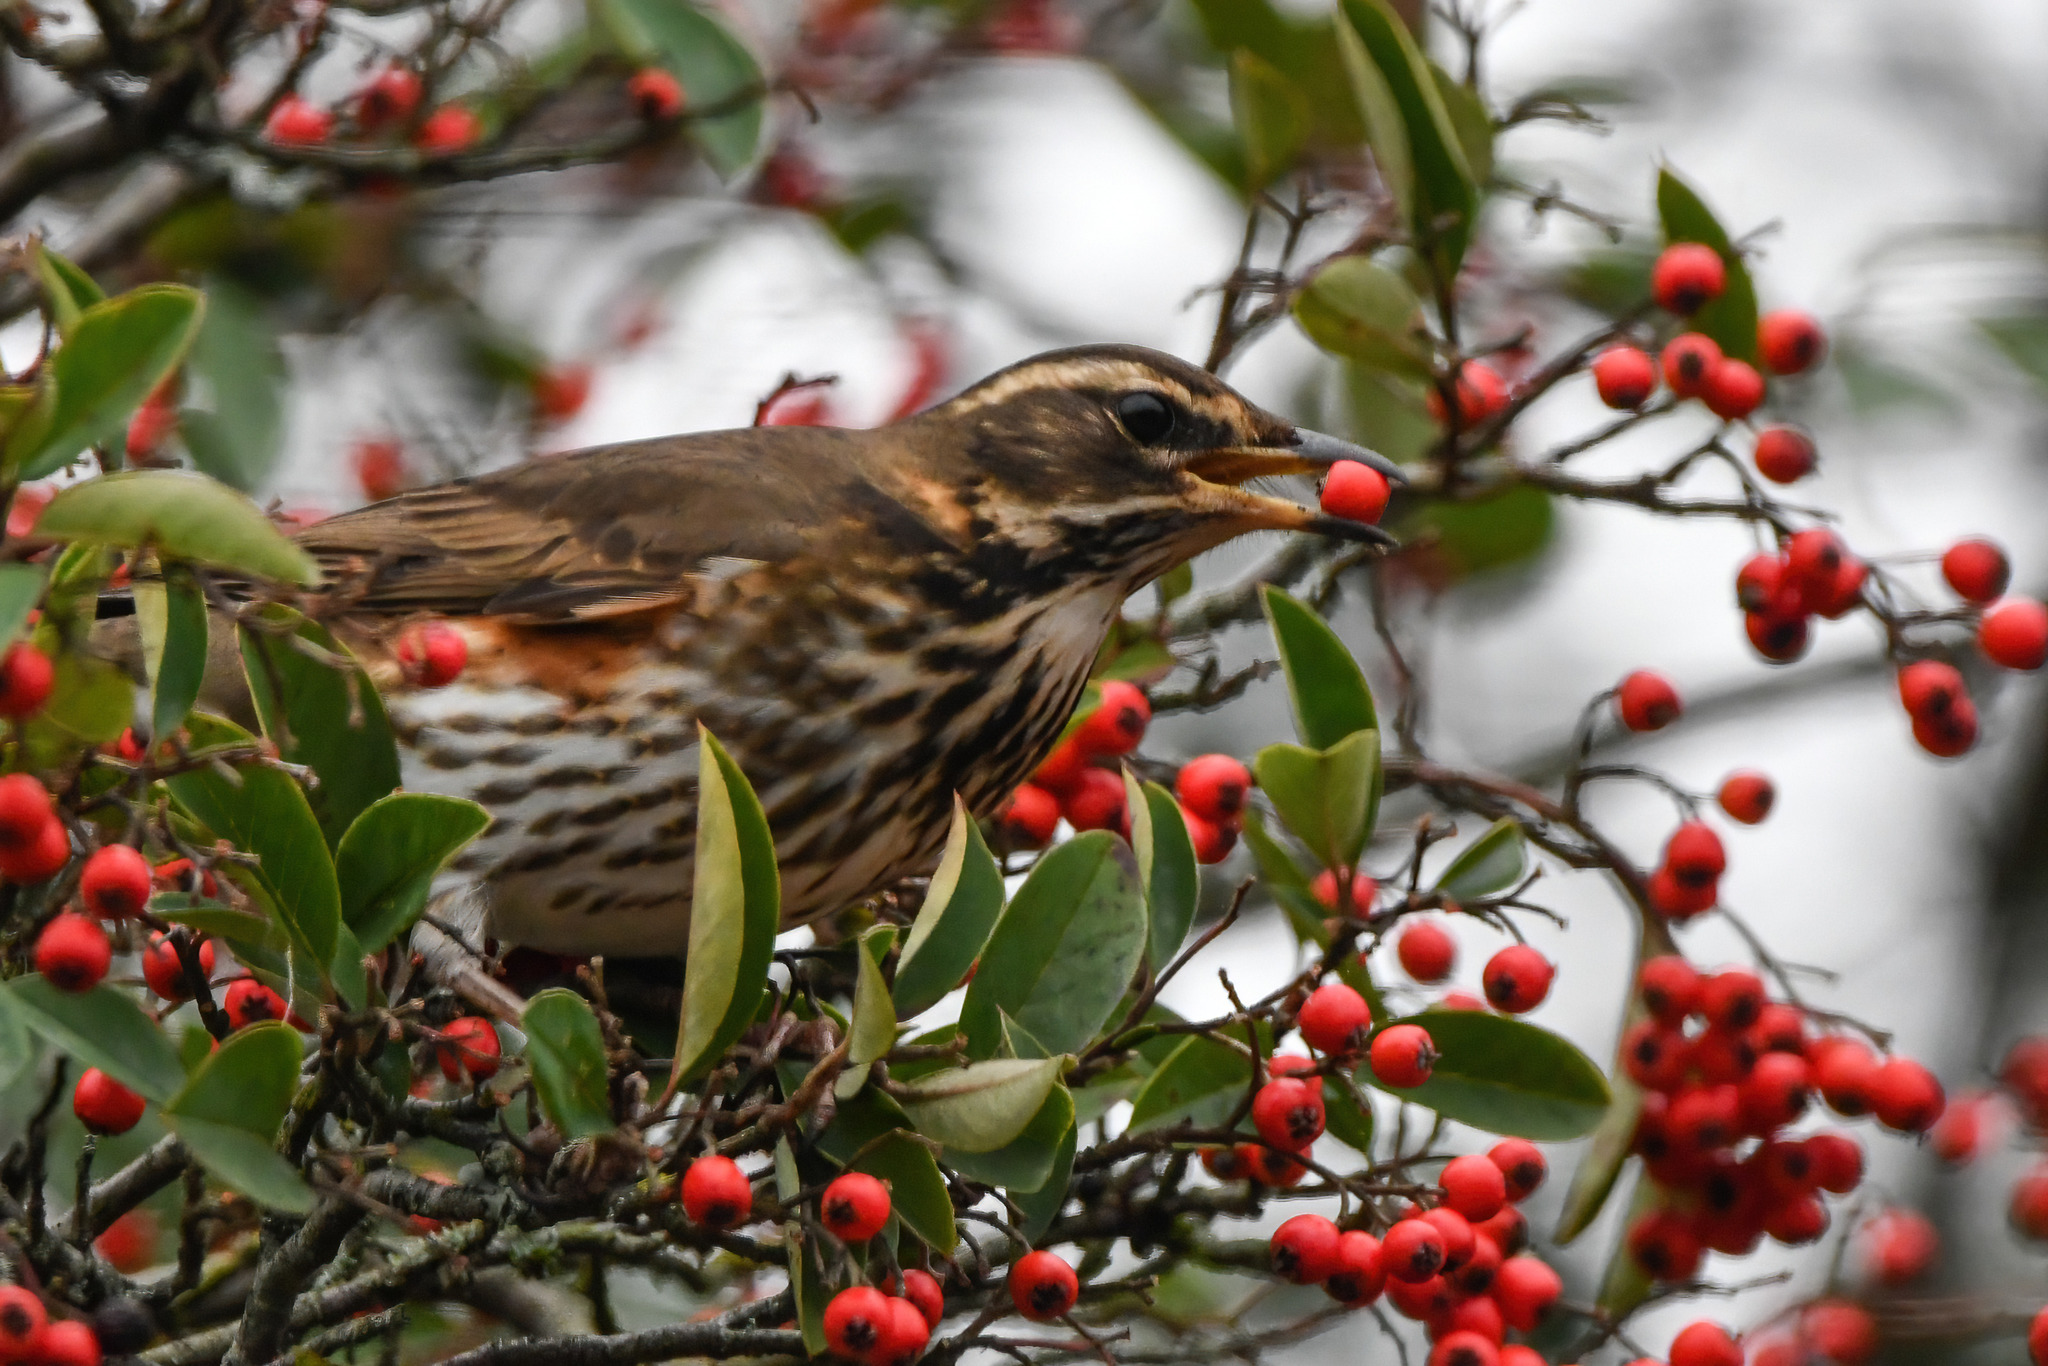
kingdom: Animalia
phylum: Chordata
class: Aves
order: Passeriformes
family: Turdidae
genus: Turdus
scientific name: Turdus iliacus
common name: Redwing
